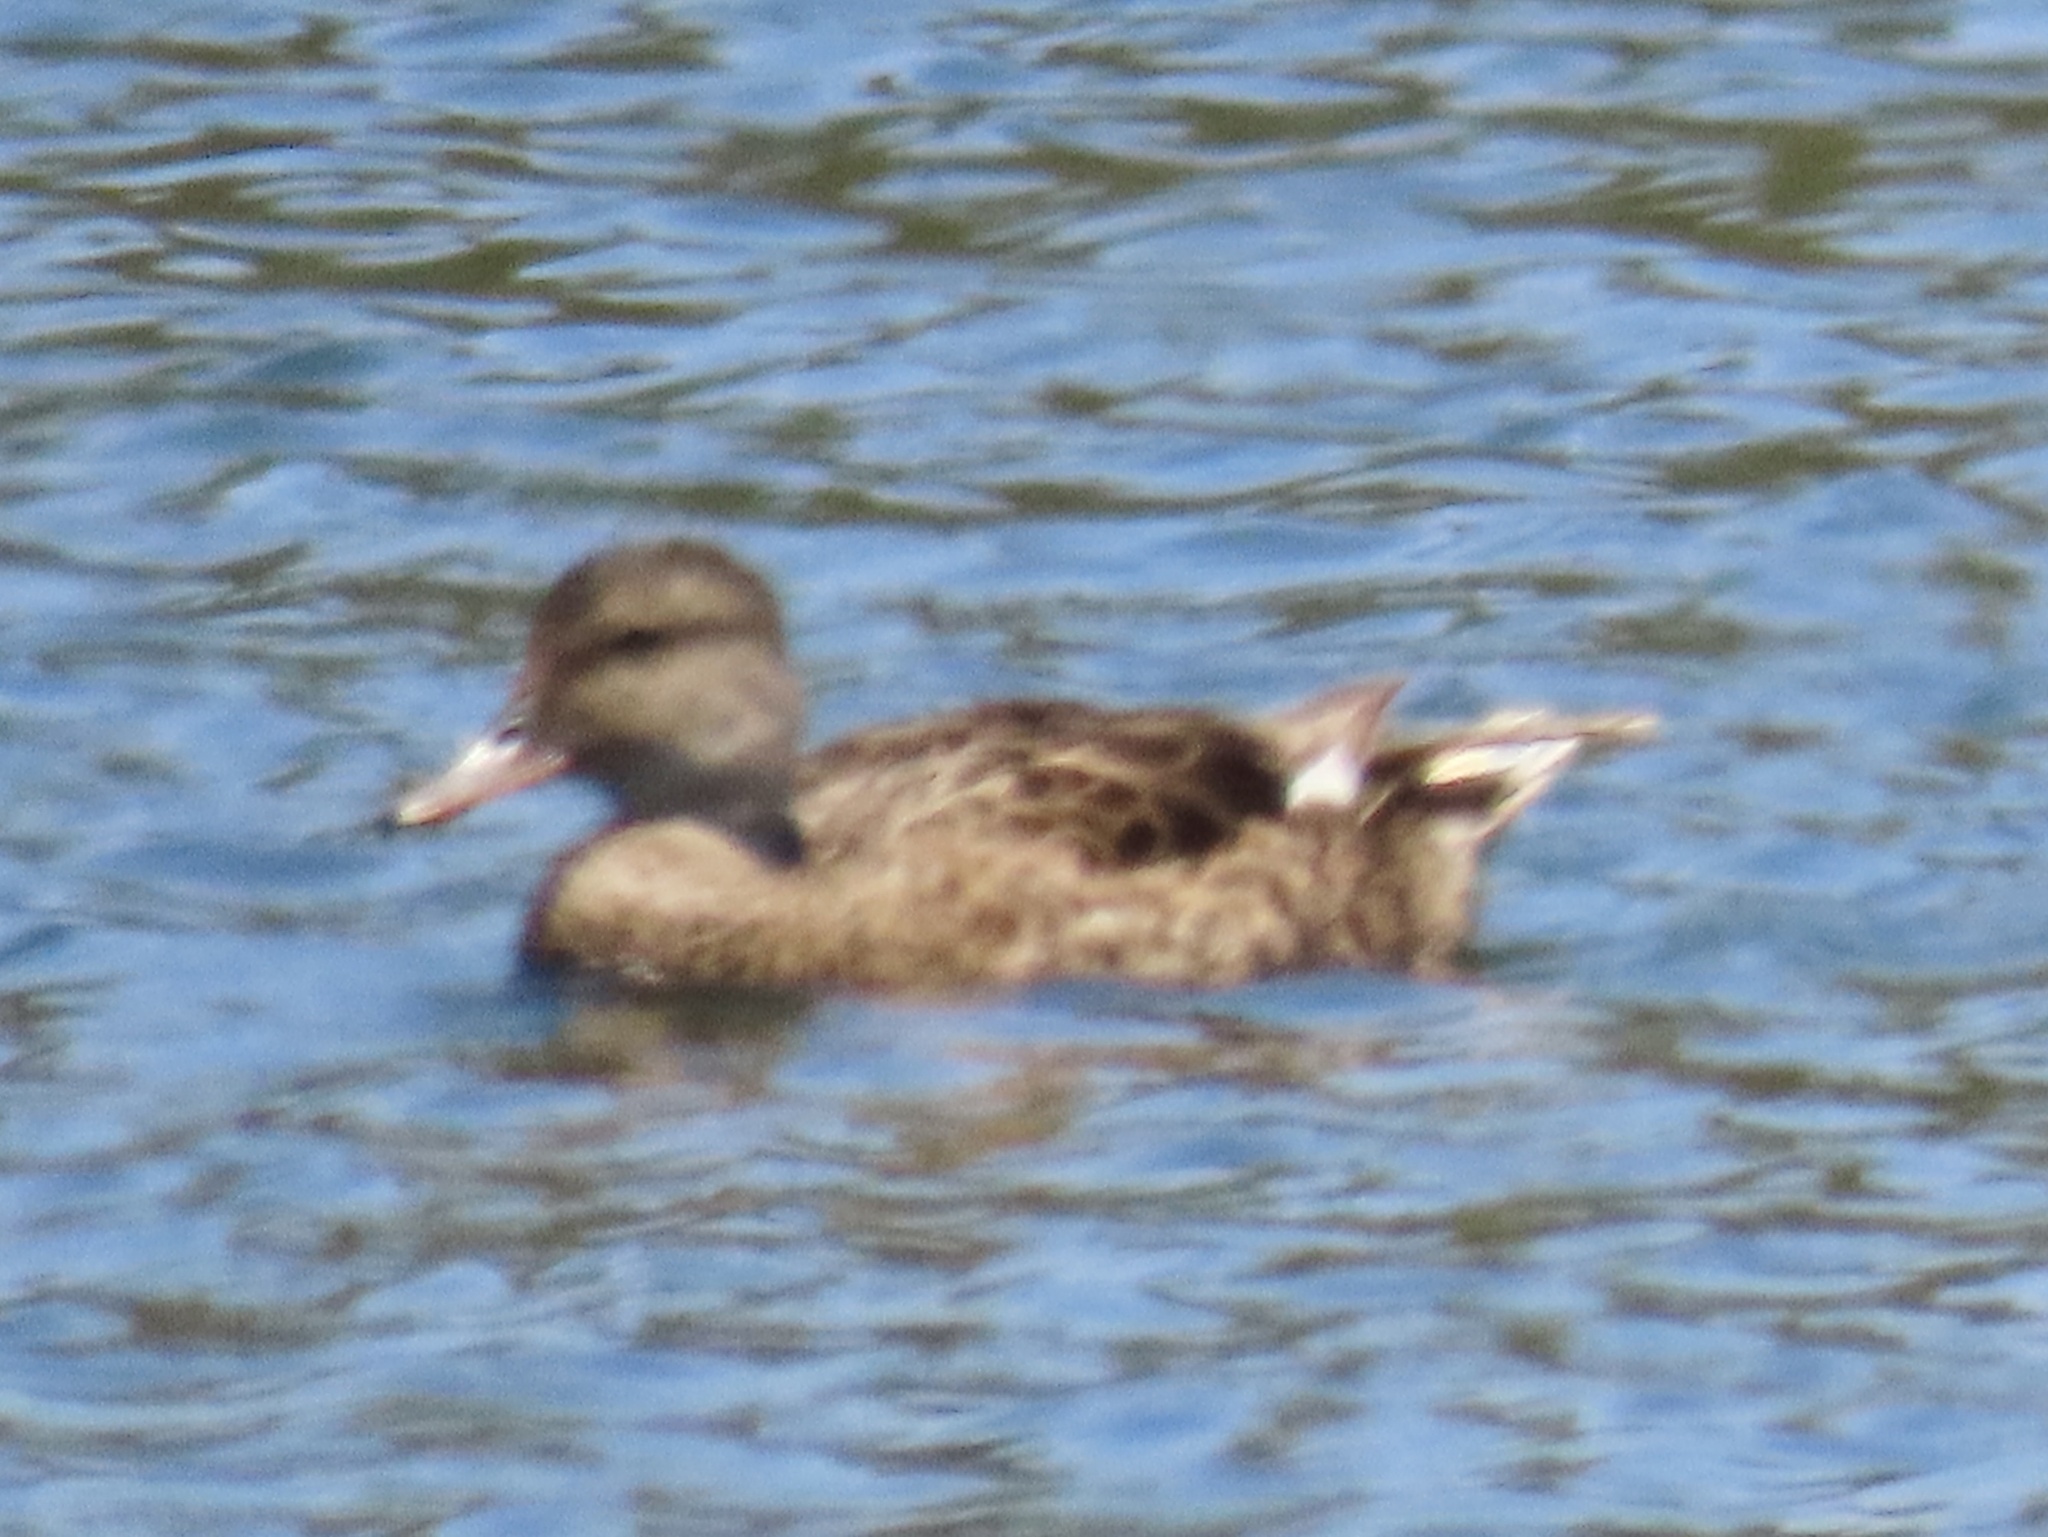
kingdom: Animalia
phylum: Chordata
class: Aves
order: Anseriformes
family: Anatidae
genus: Mareca
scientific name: Mareca strepera
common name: Gadwall
